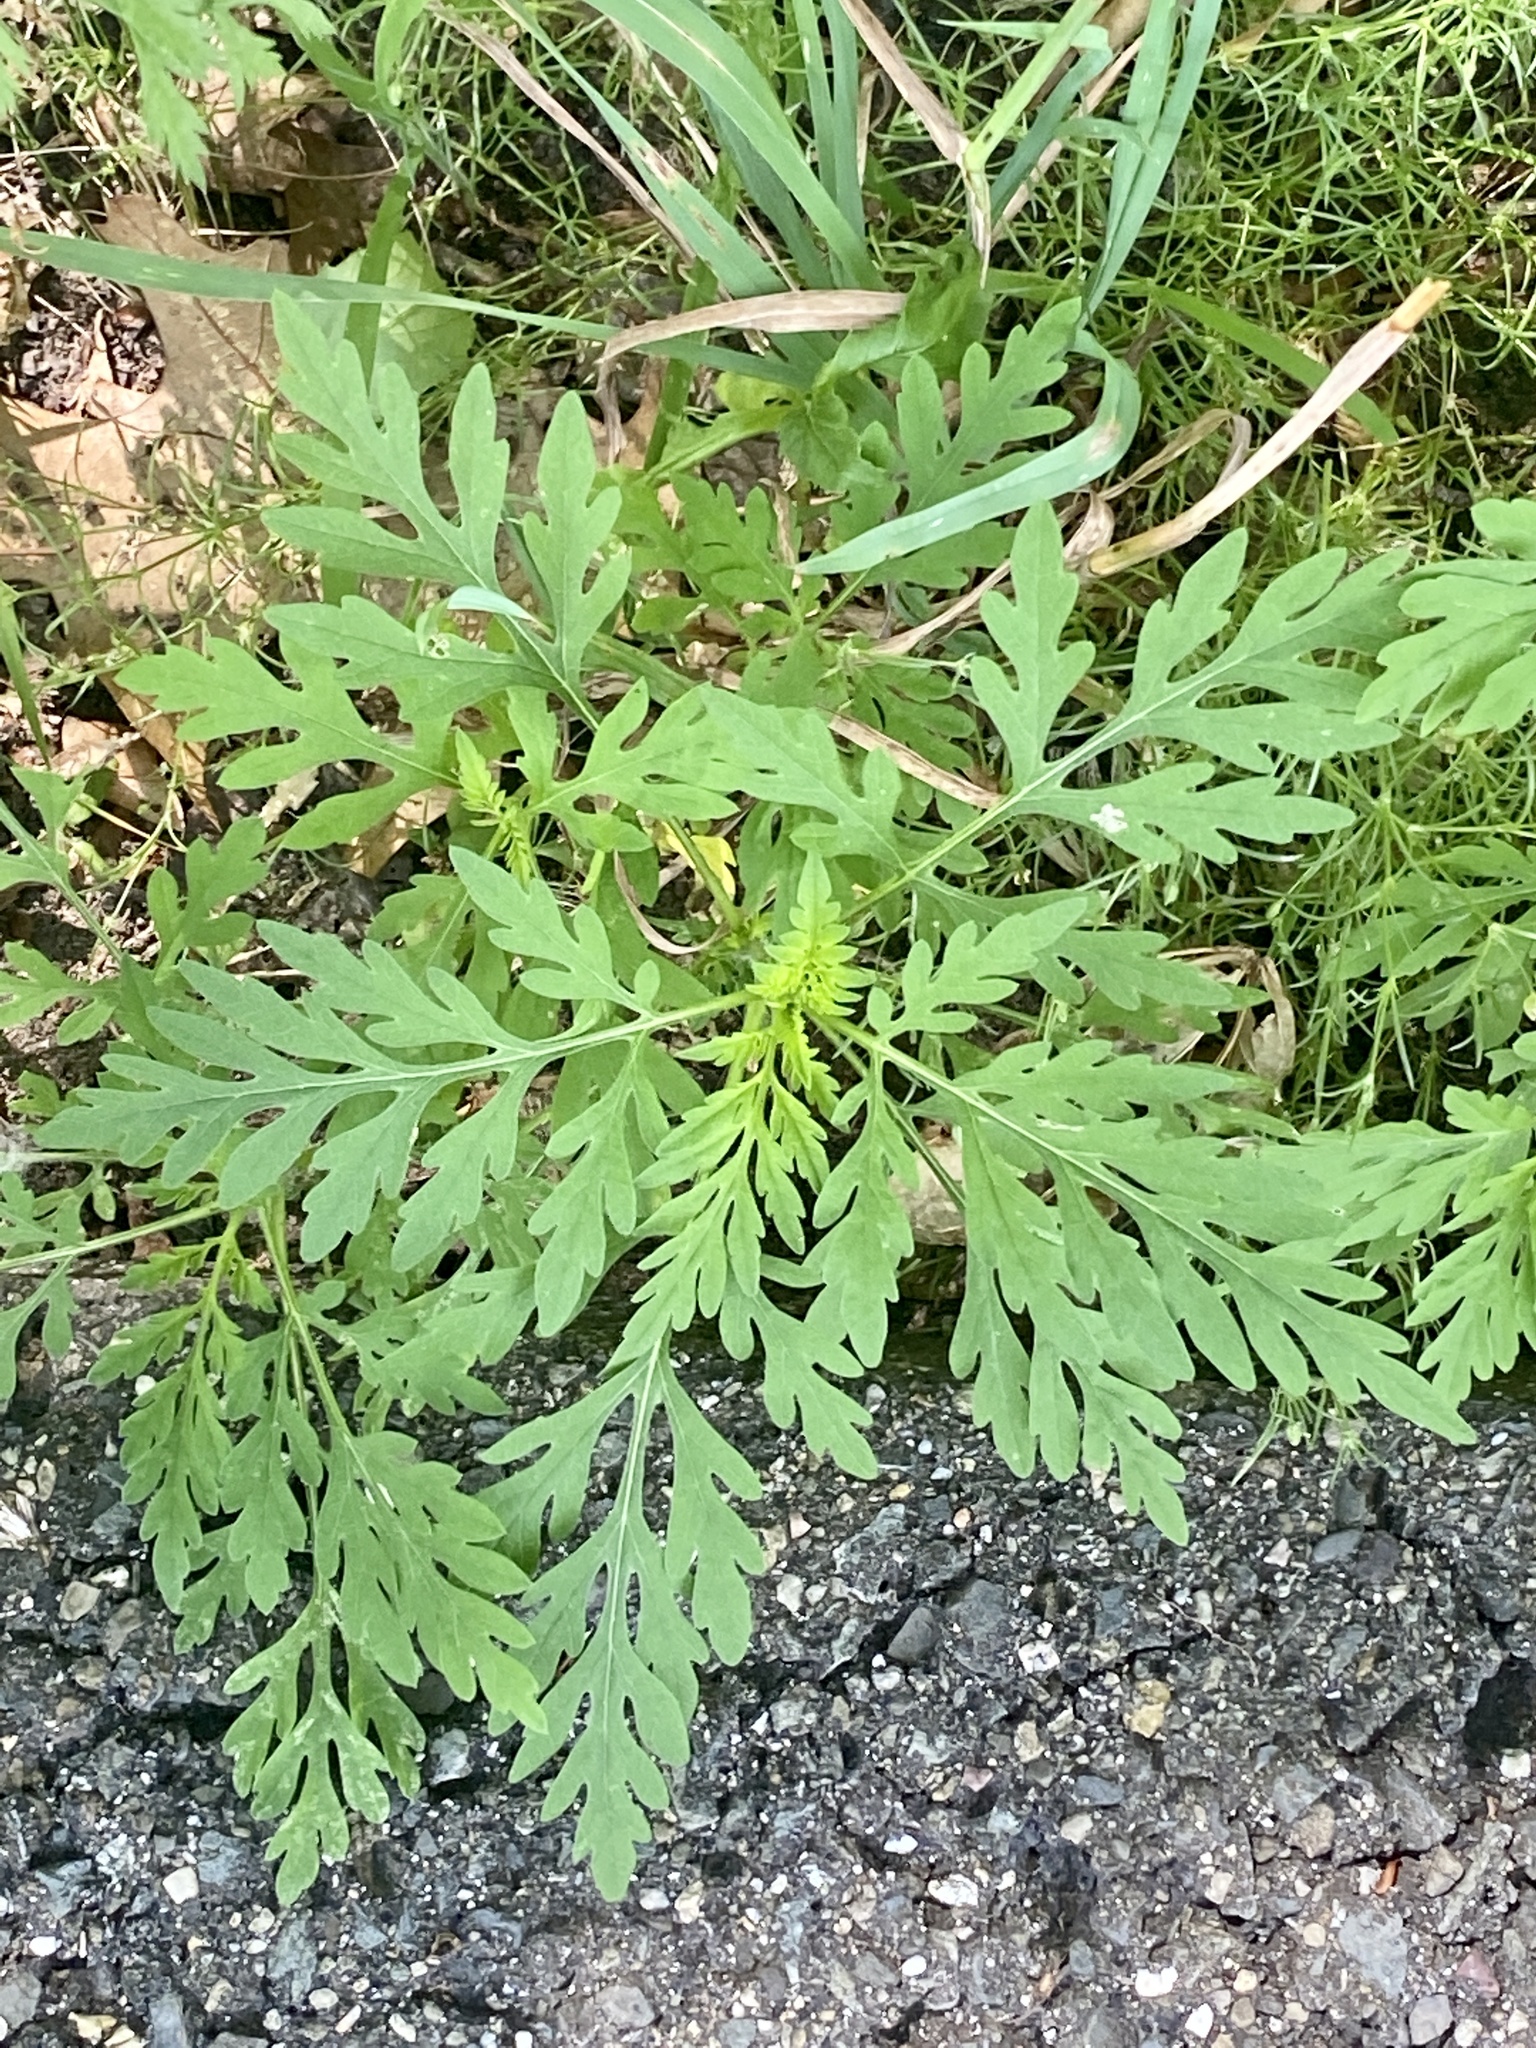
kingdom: Plantae
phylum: Tracheophyta
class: Magnoliopsida
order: Asterales
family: Asteraceae
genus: Ambrosia
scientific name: Ambrosia artemisiifolia
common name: Annual ragweed
